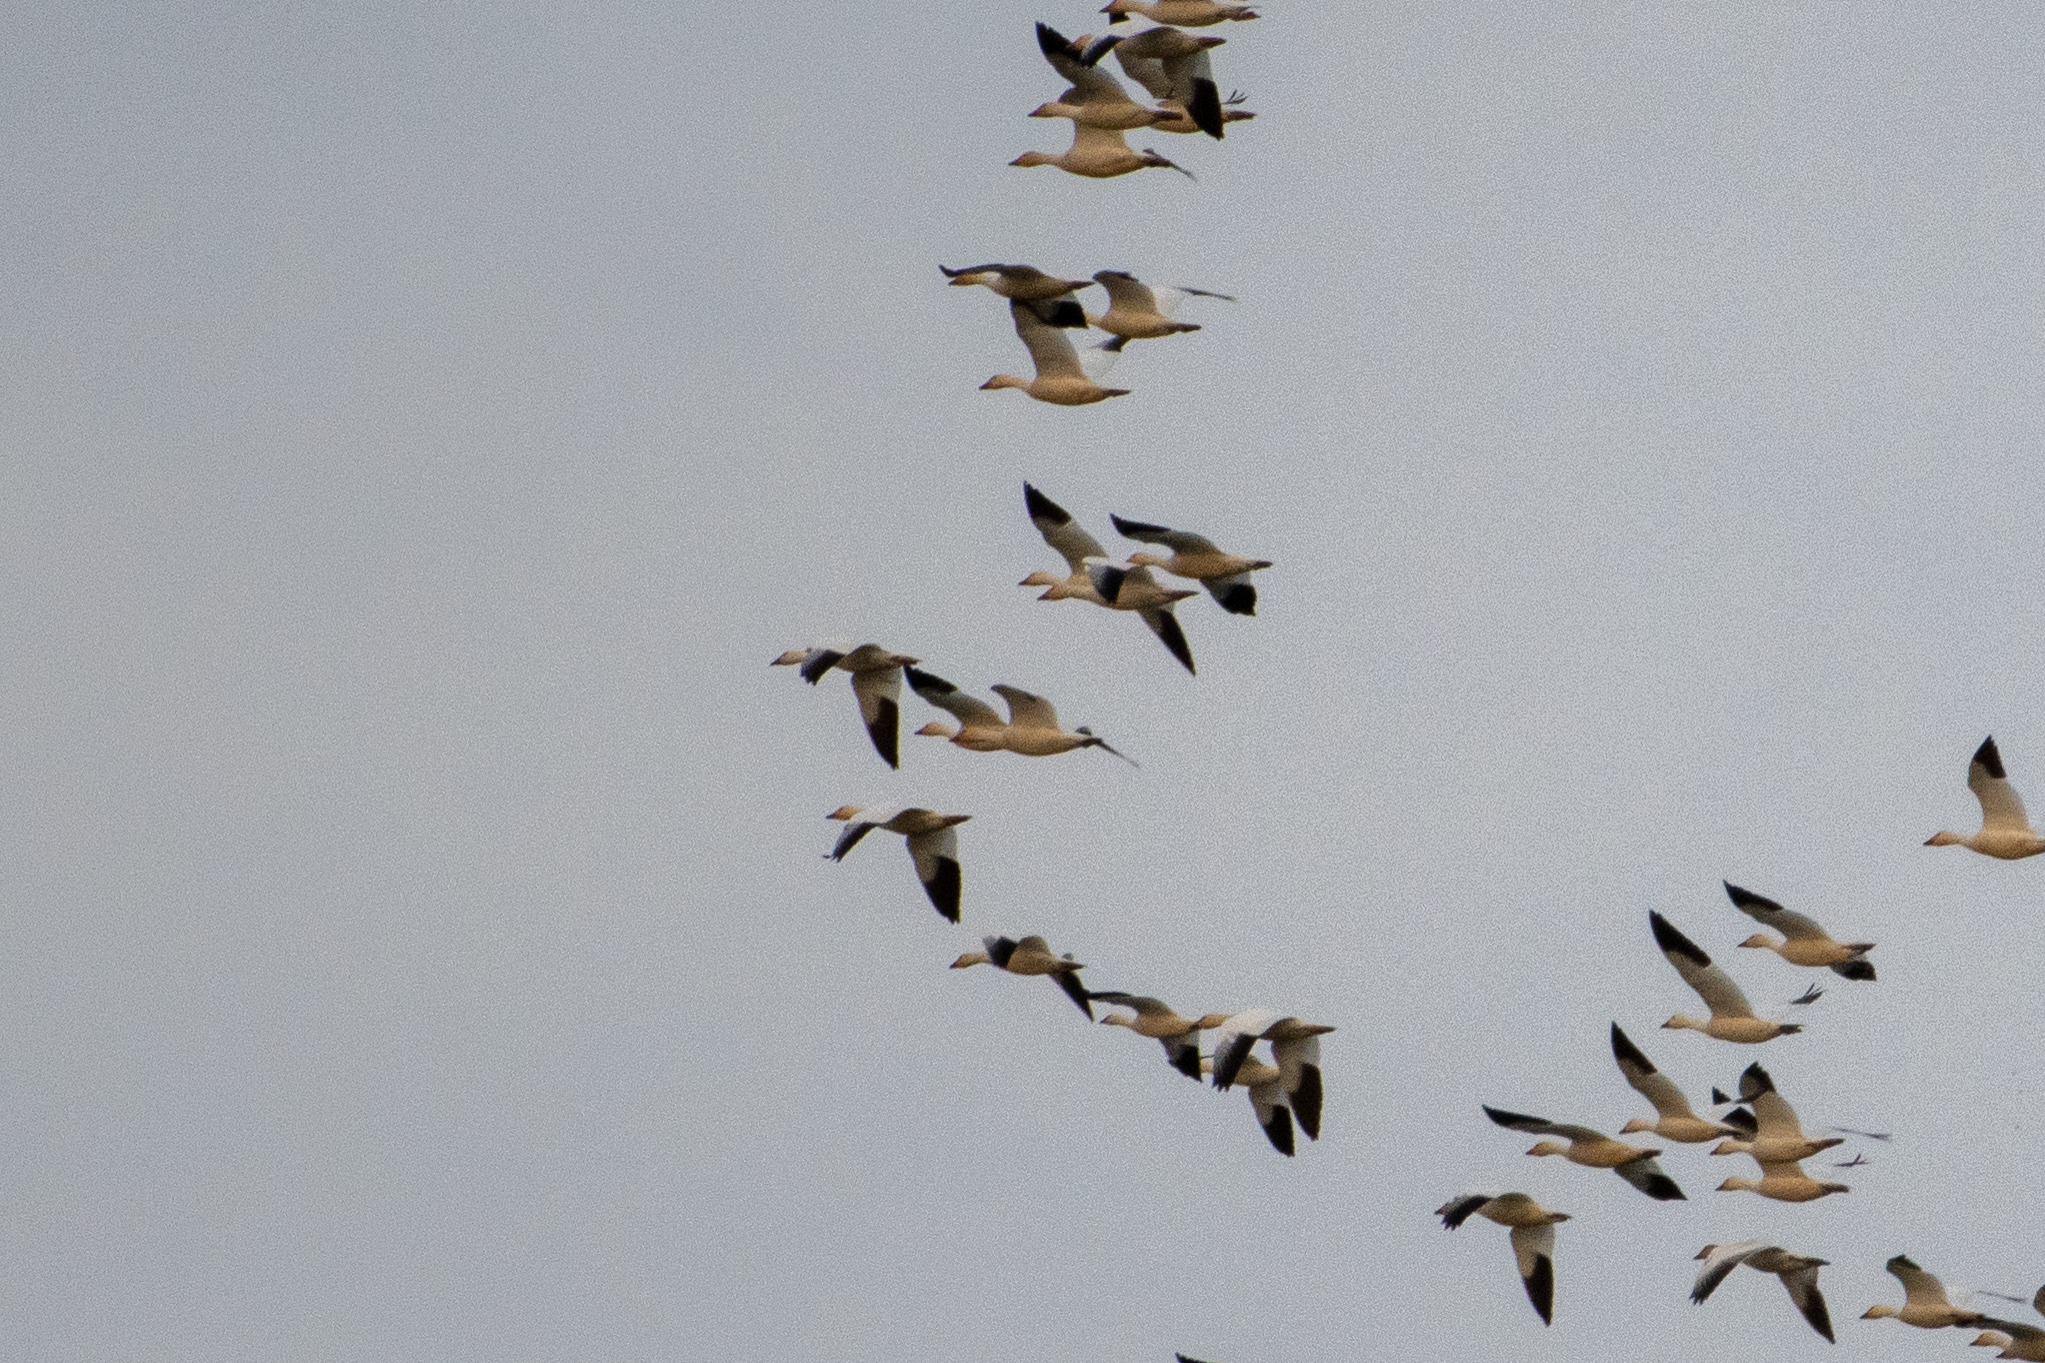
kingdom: Animalia
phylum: Chordata
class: Aves
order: Anseriformes
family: Anatidae
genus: Anser
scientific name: Anser caerulescens
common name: Snow goose
